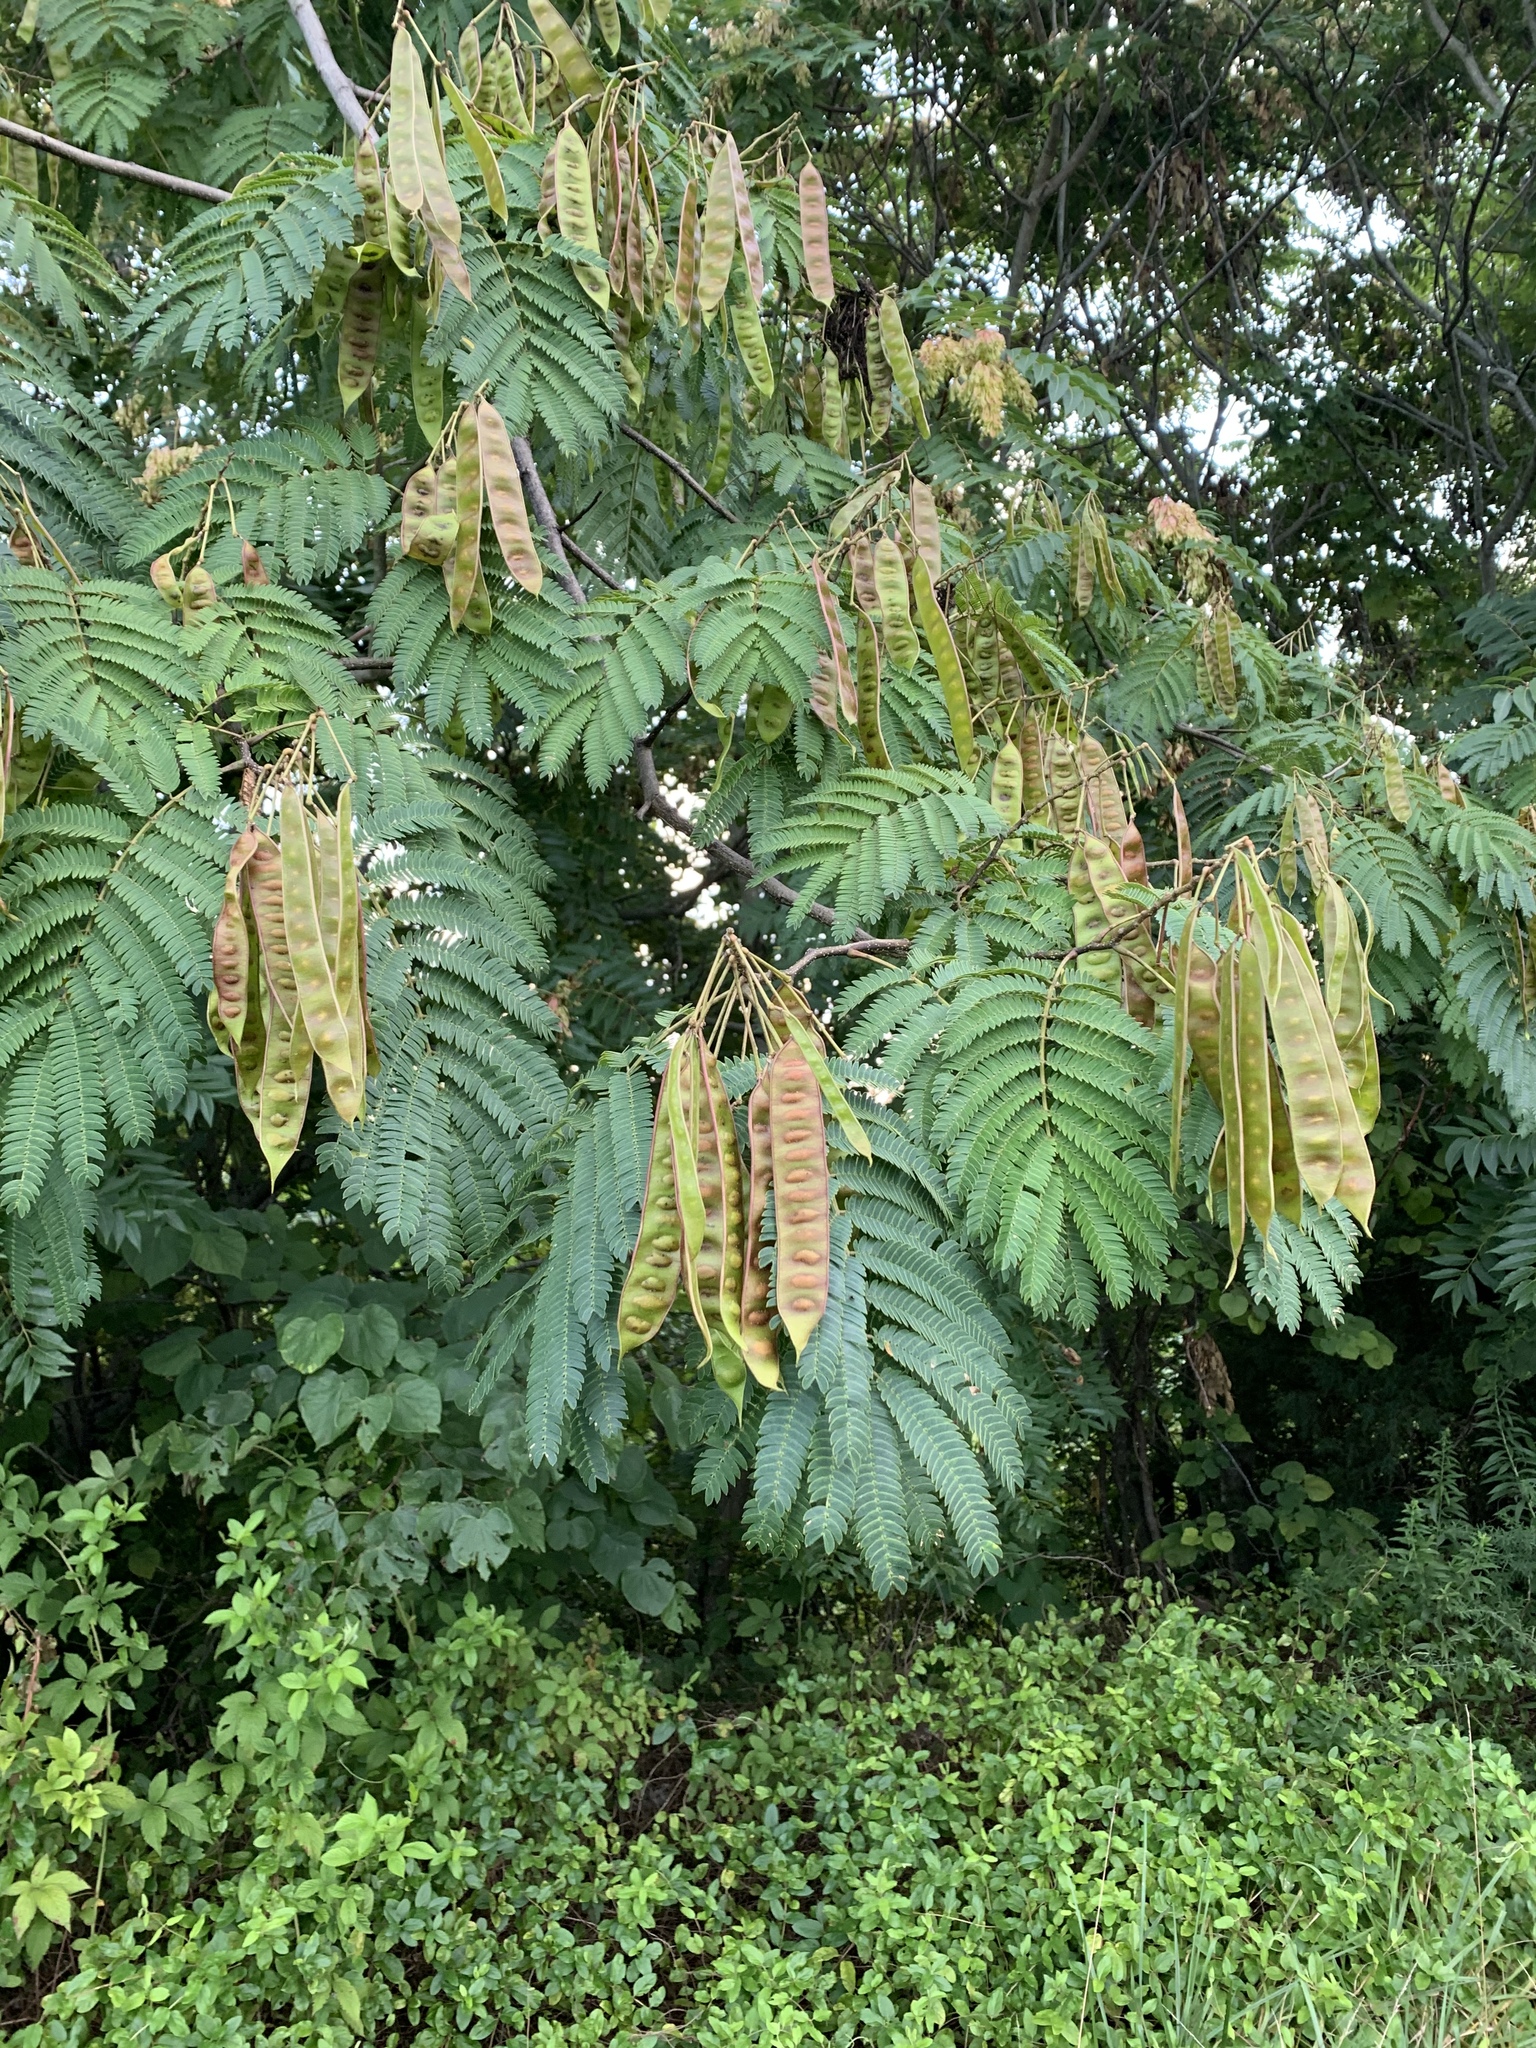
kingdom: Plantae
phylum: Tracheophyta
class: Magnoliopsida
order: Fabales
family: Fabaceae
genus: Albizia
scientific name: Albizia julibrissin
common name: Silktree
